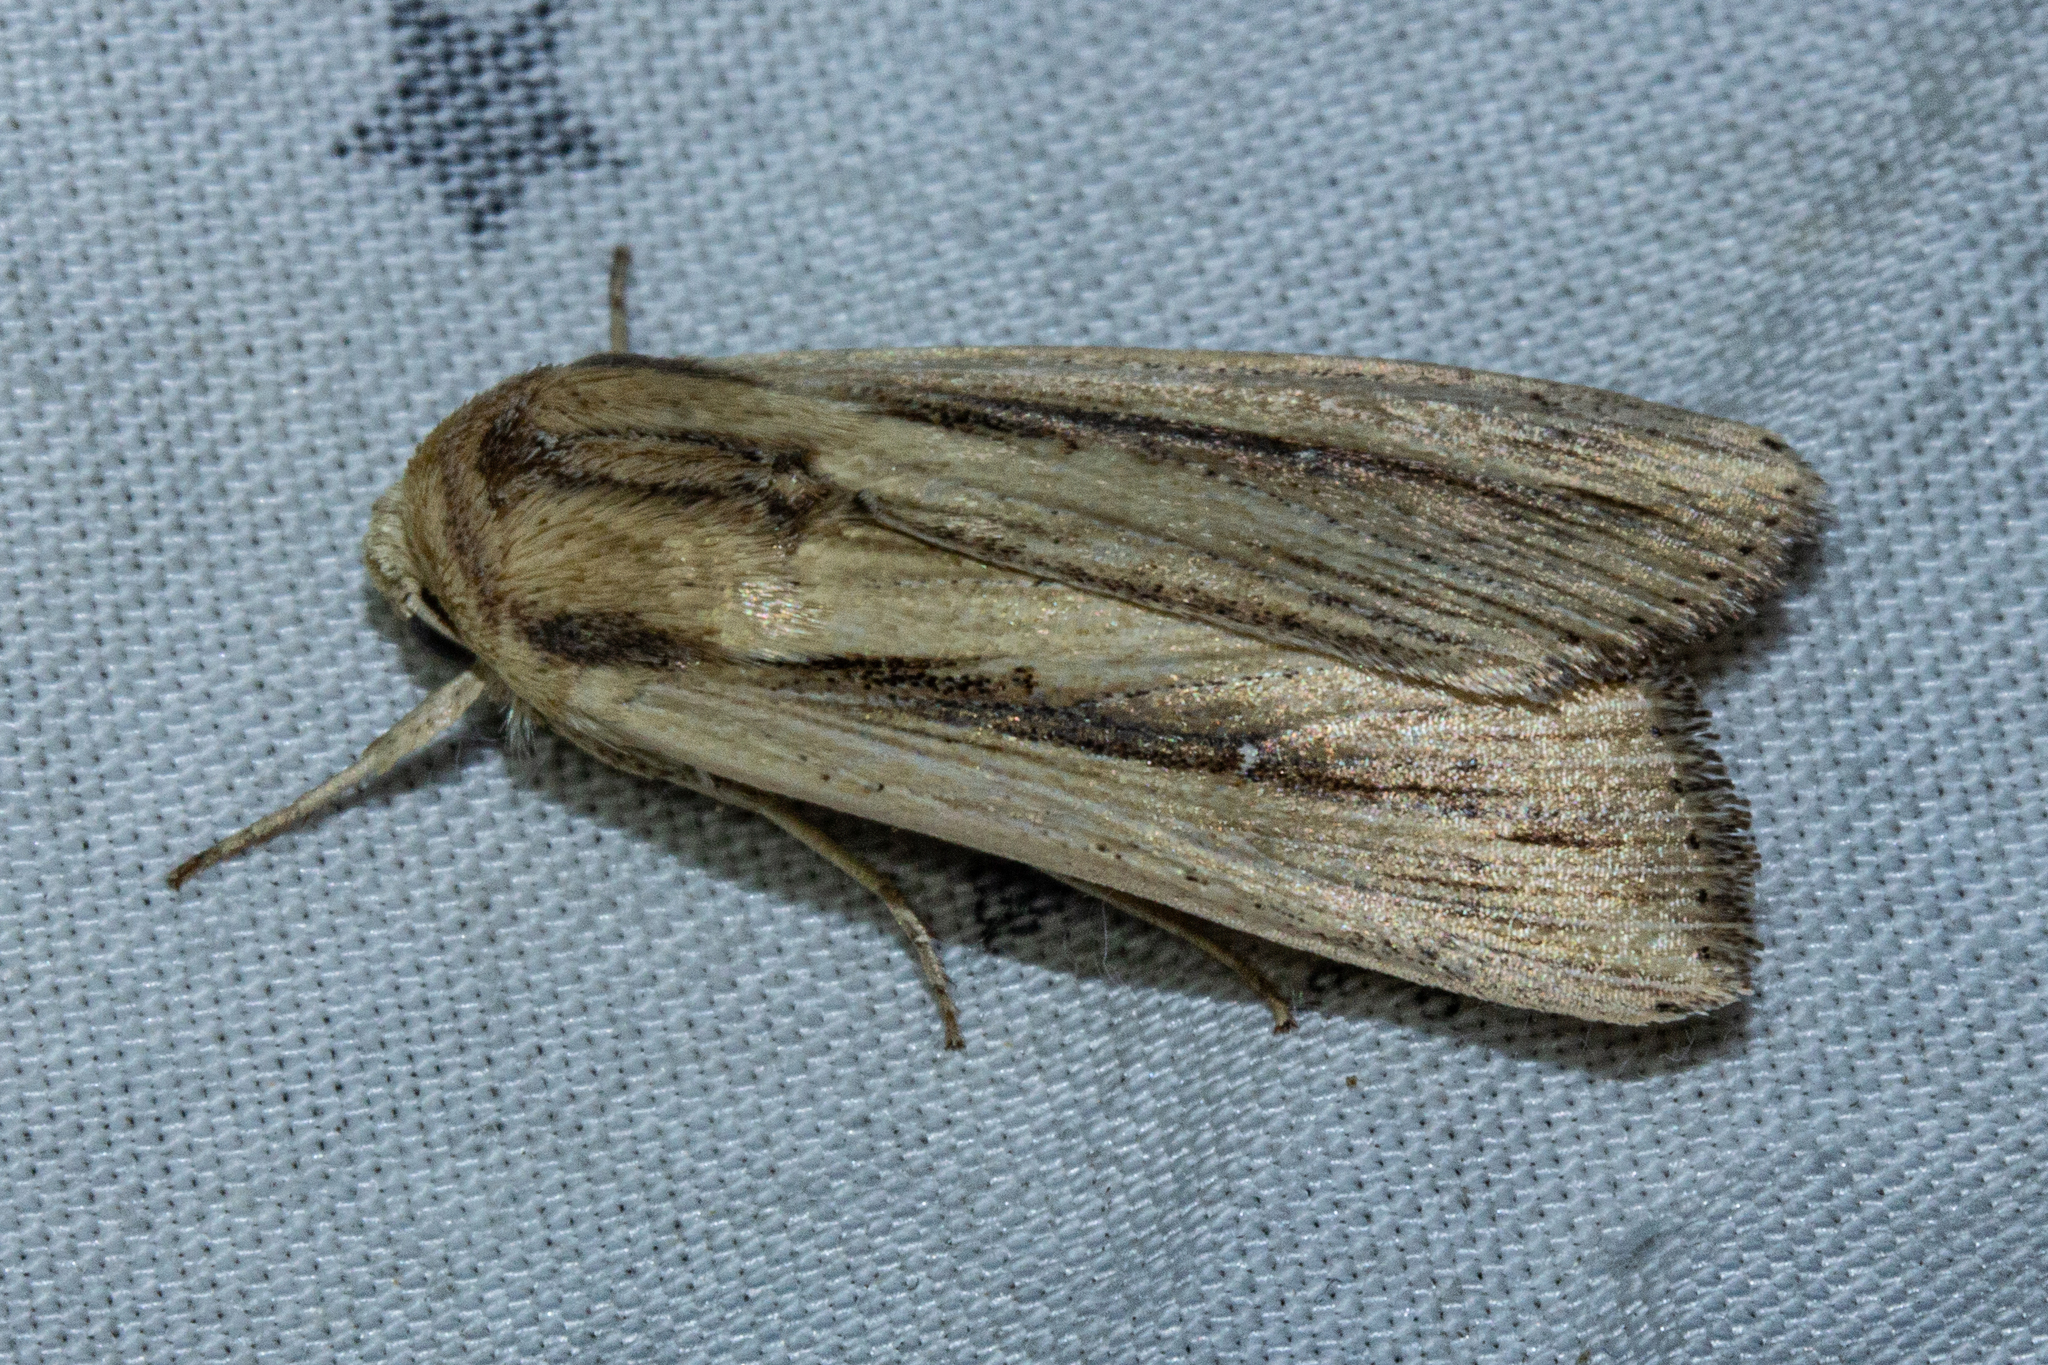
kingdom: Animalia
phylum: Arthropoda
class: Insecta
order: Lepidoptera
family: Noctuidae
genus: Leucania
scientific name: Leucania stenographa
